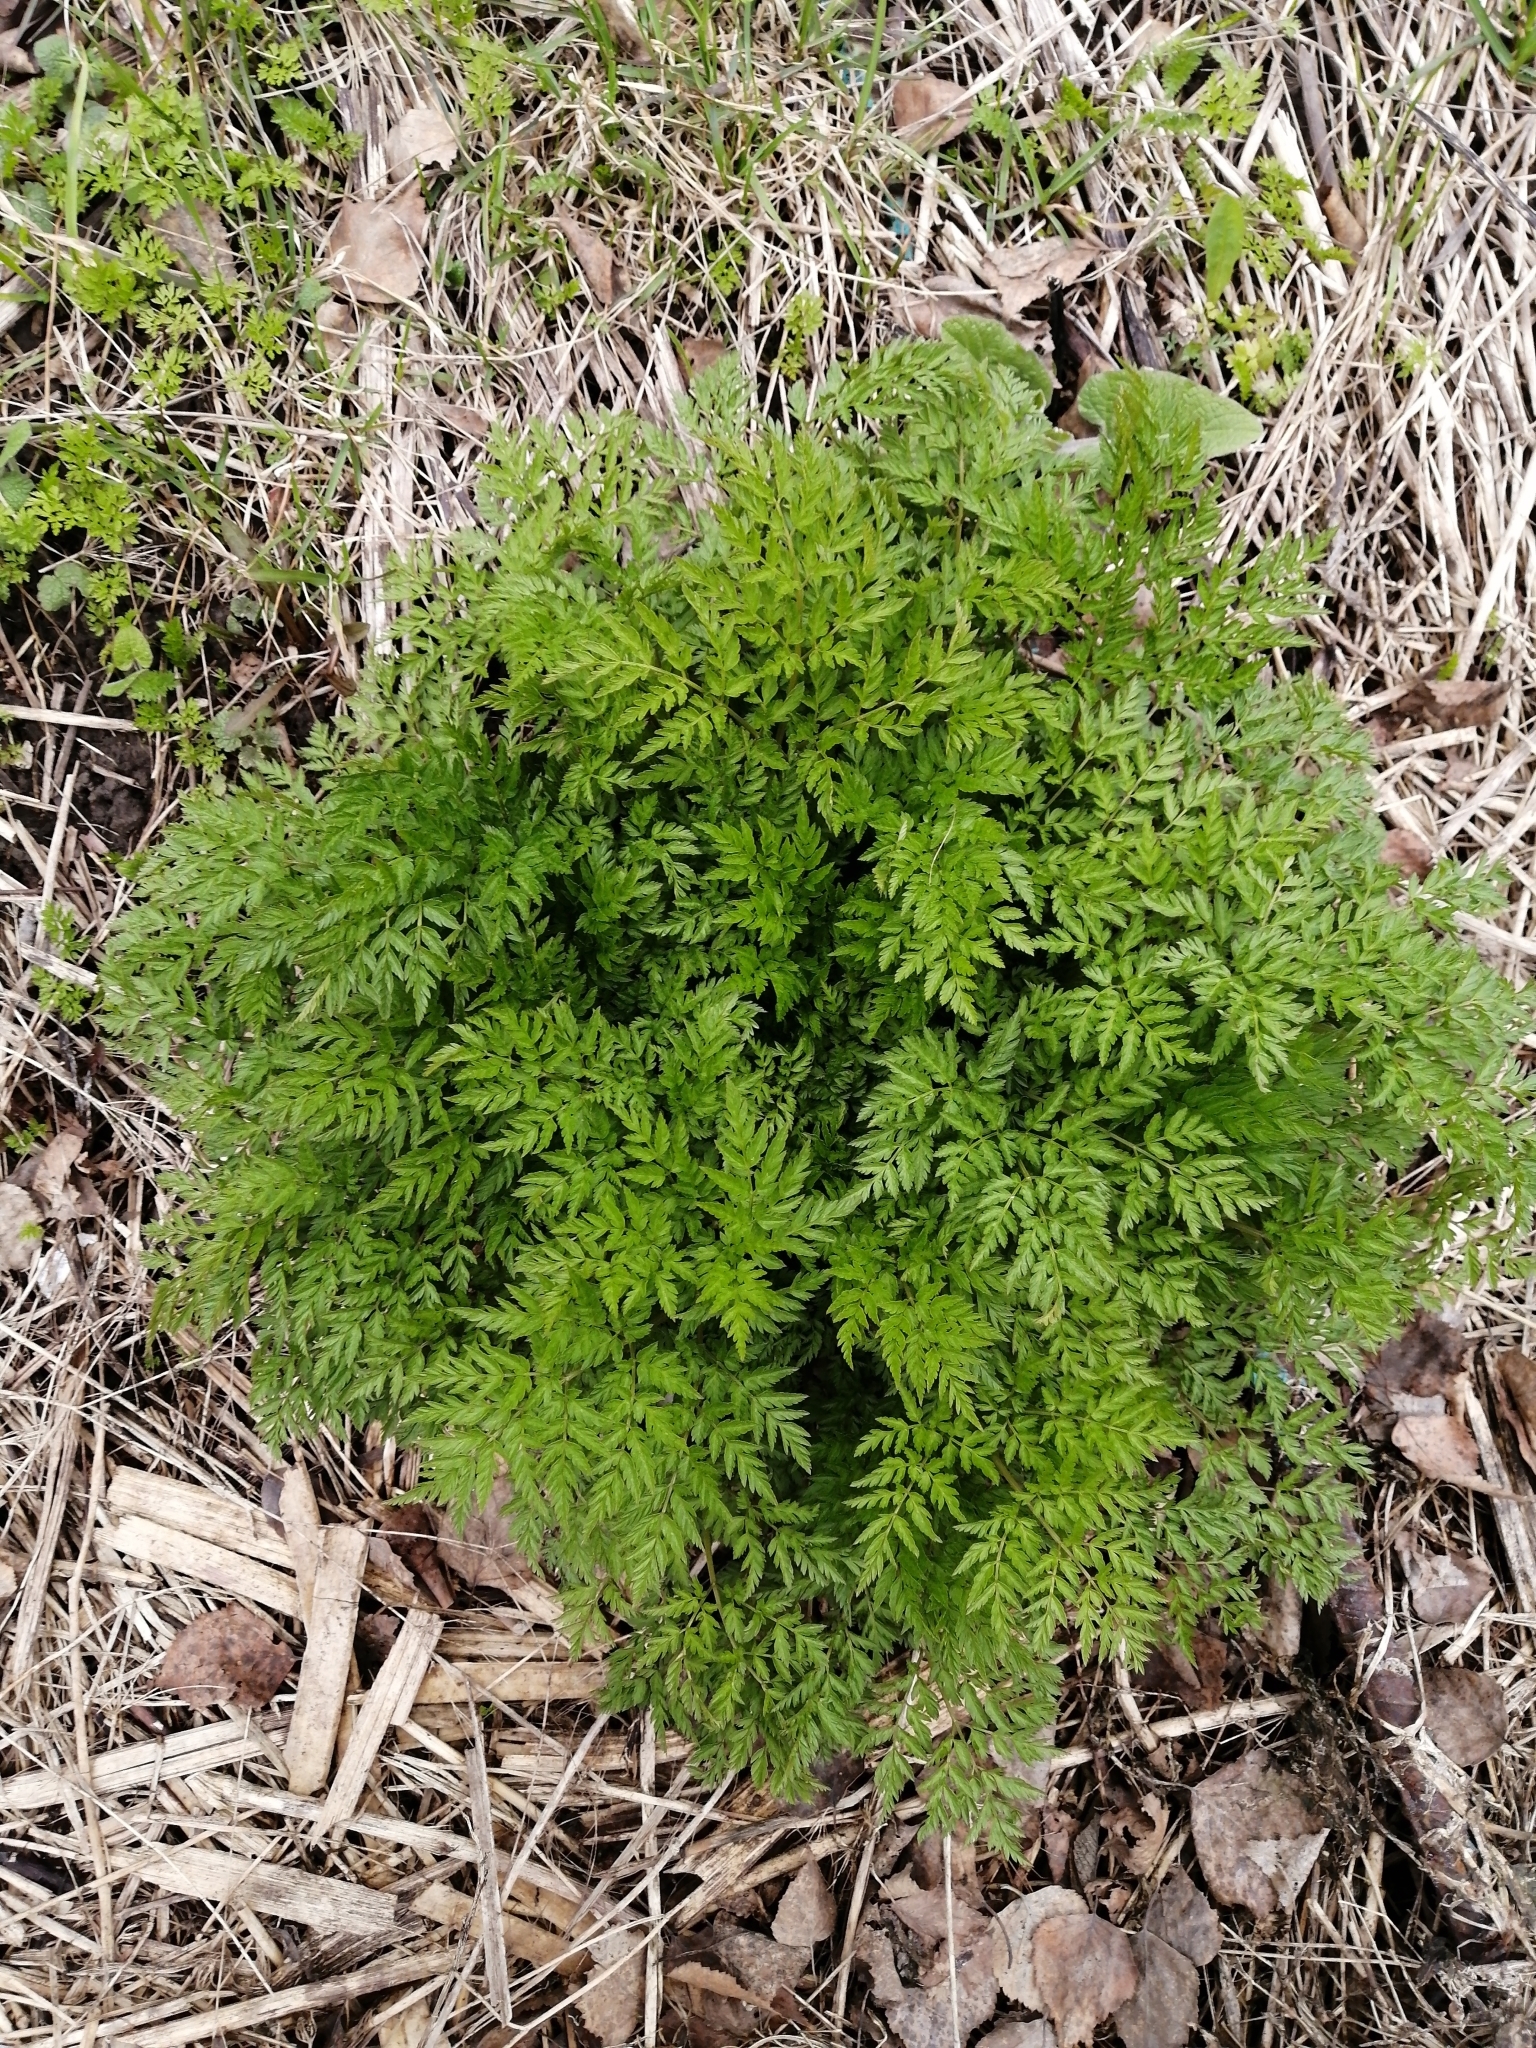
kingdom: Plantae
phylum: Tracheophyta
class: Magnoliopsida
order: Apiales
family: Apiaceae
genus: Anthriscus
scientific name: Anthriscus sylvestris
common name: Cow parsley
